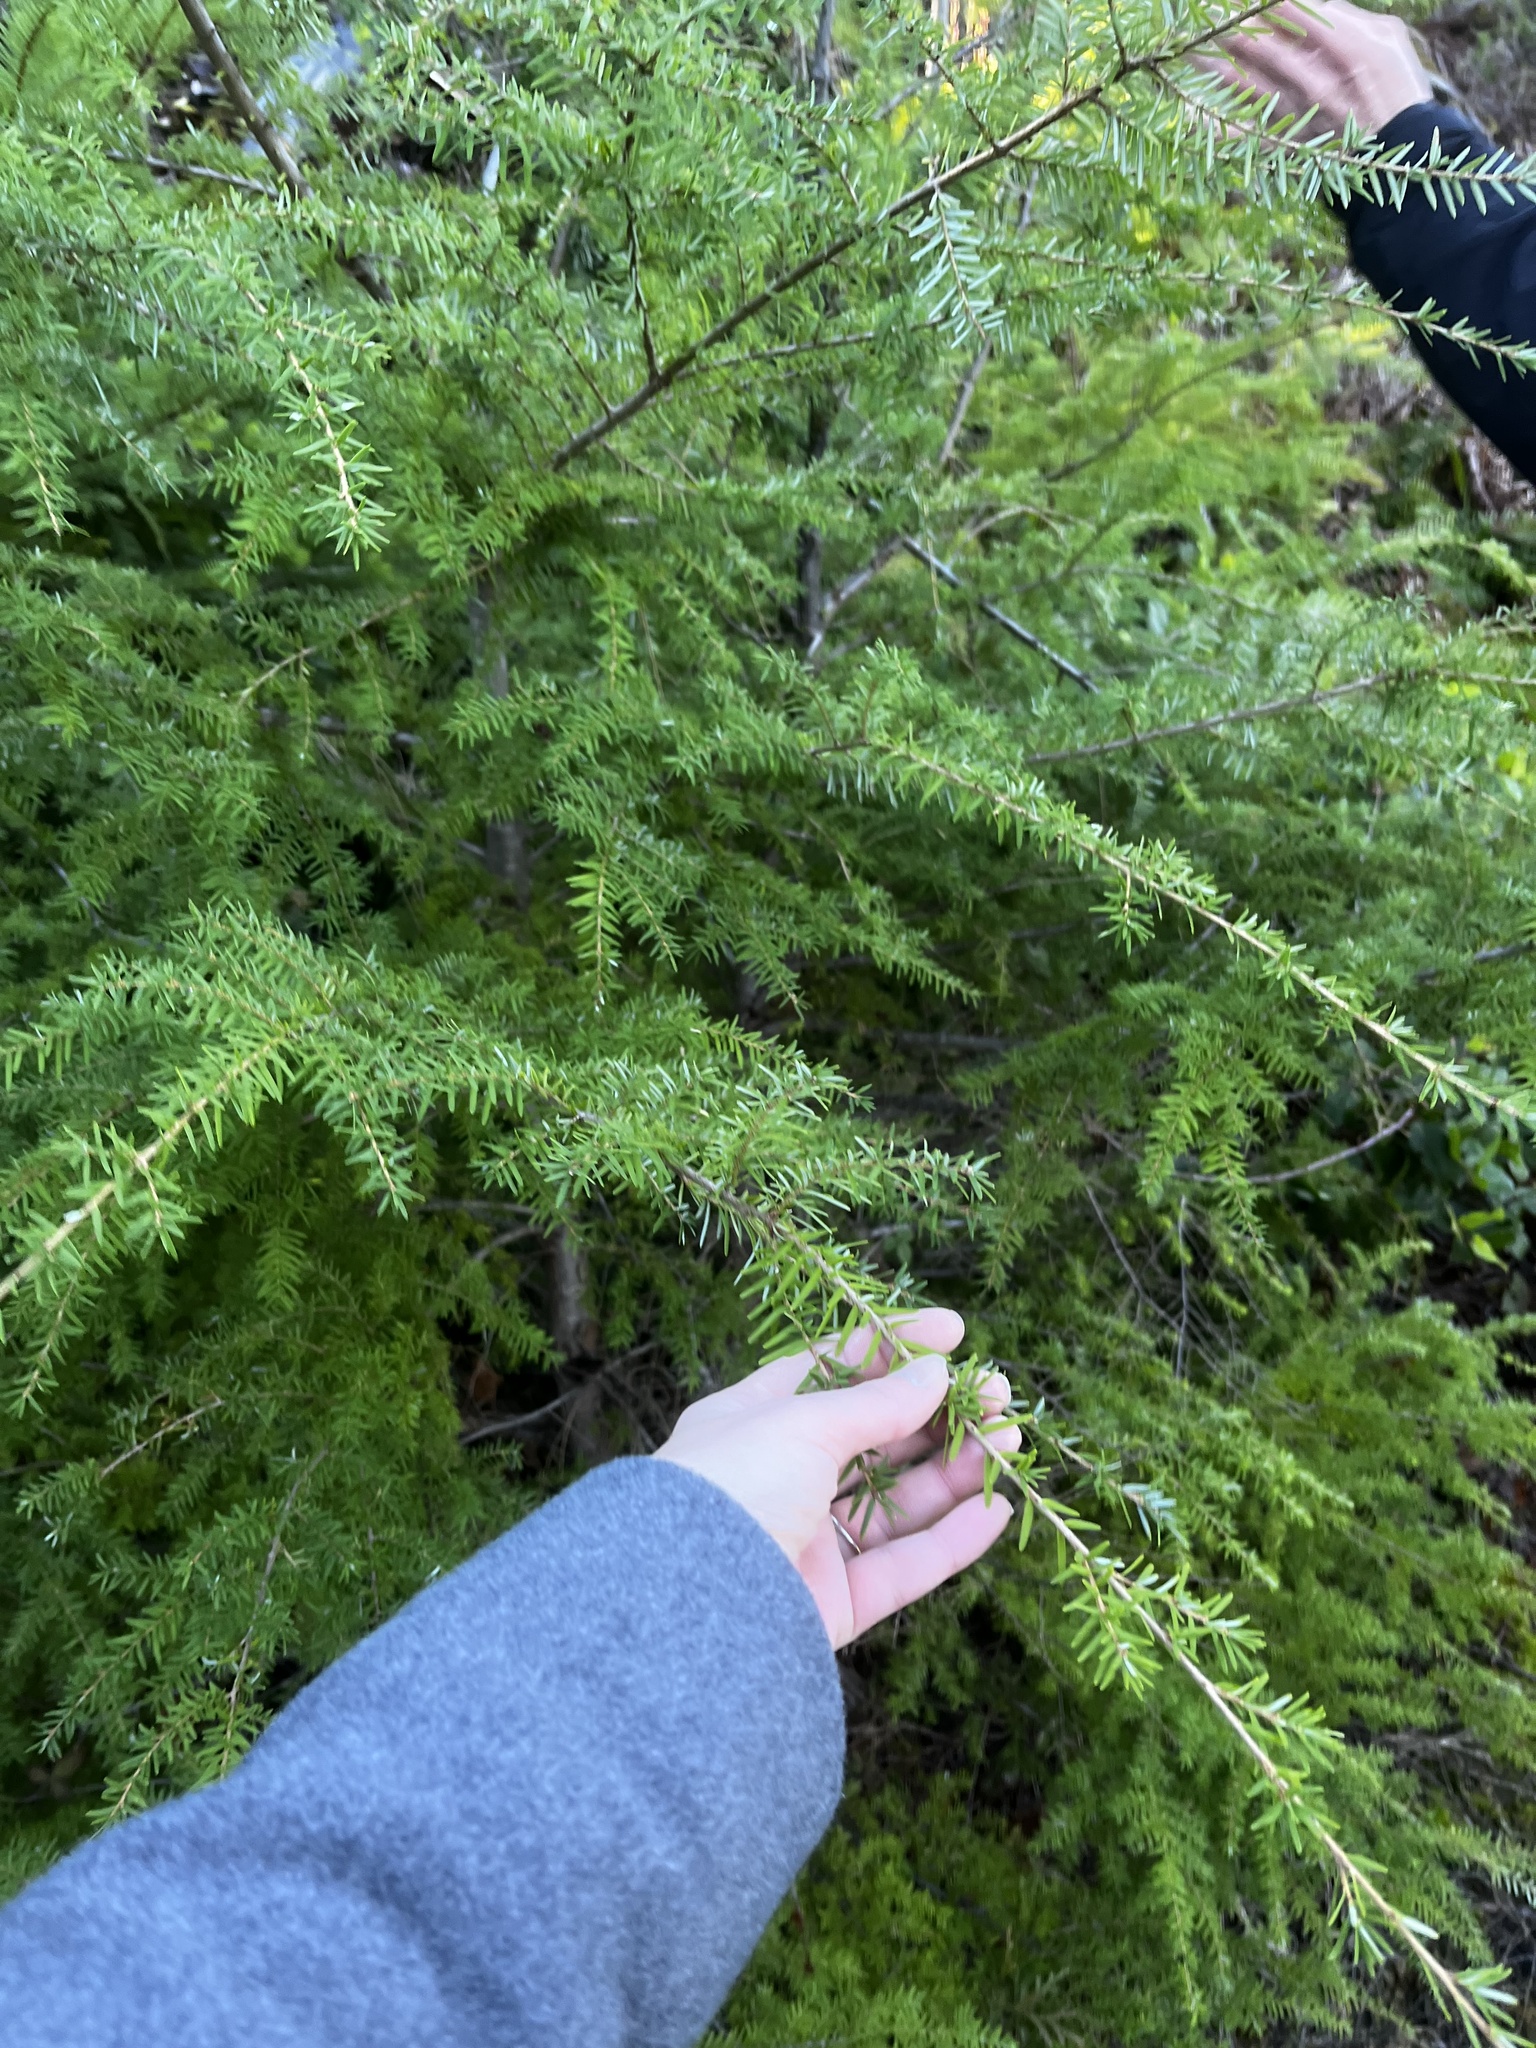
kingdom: Plantae
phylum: Tracheophyta
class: Pinopsida
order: Pinales
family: Pinaceae
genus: Tsuga
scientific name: Tsuga heterophylla
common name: Western hemlock
